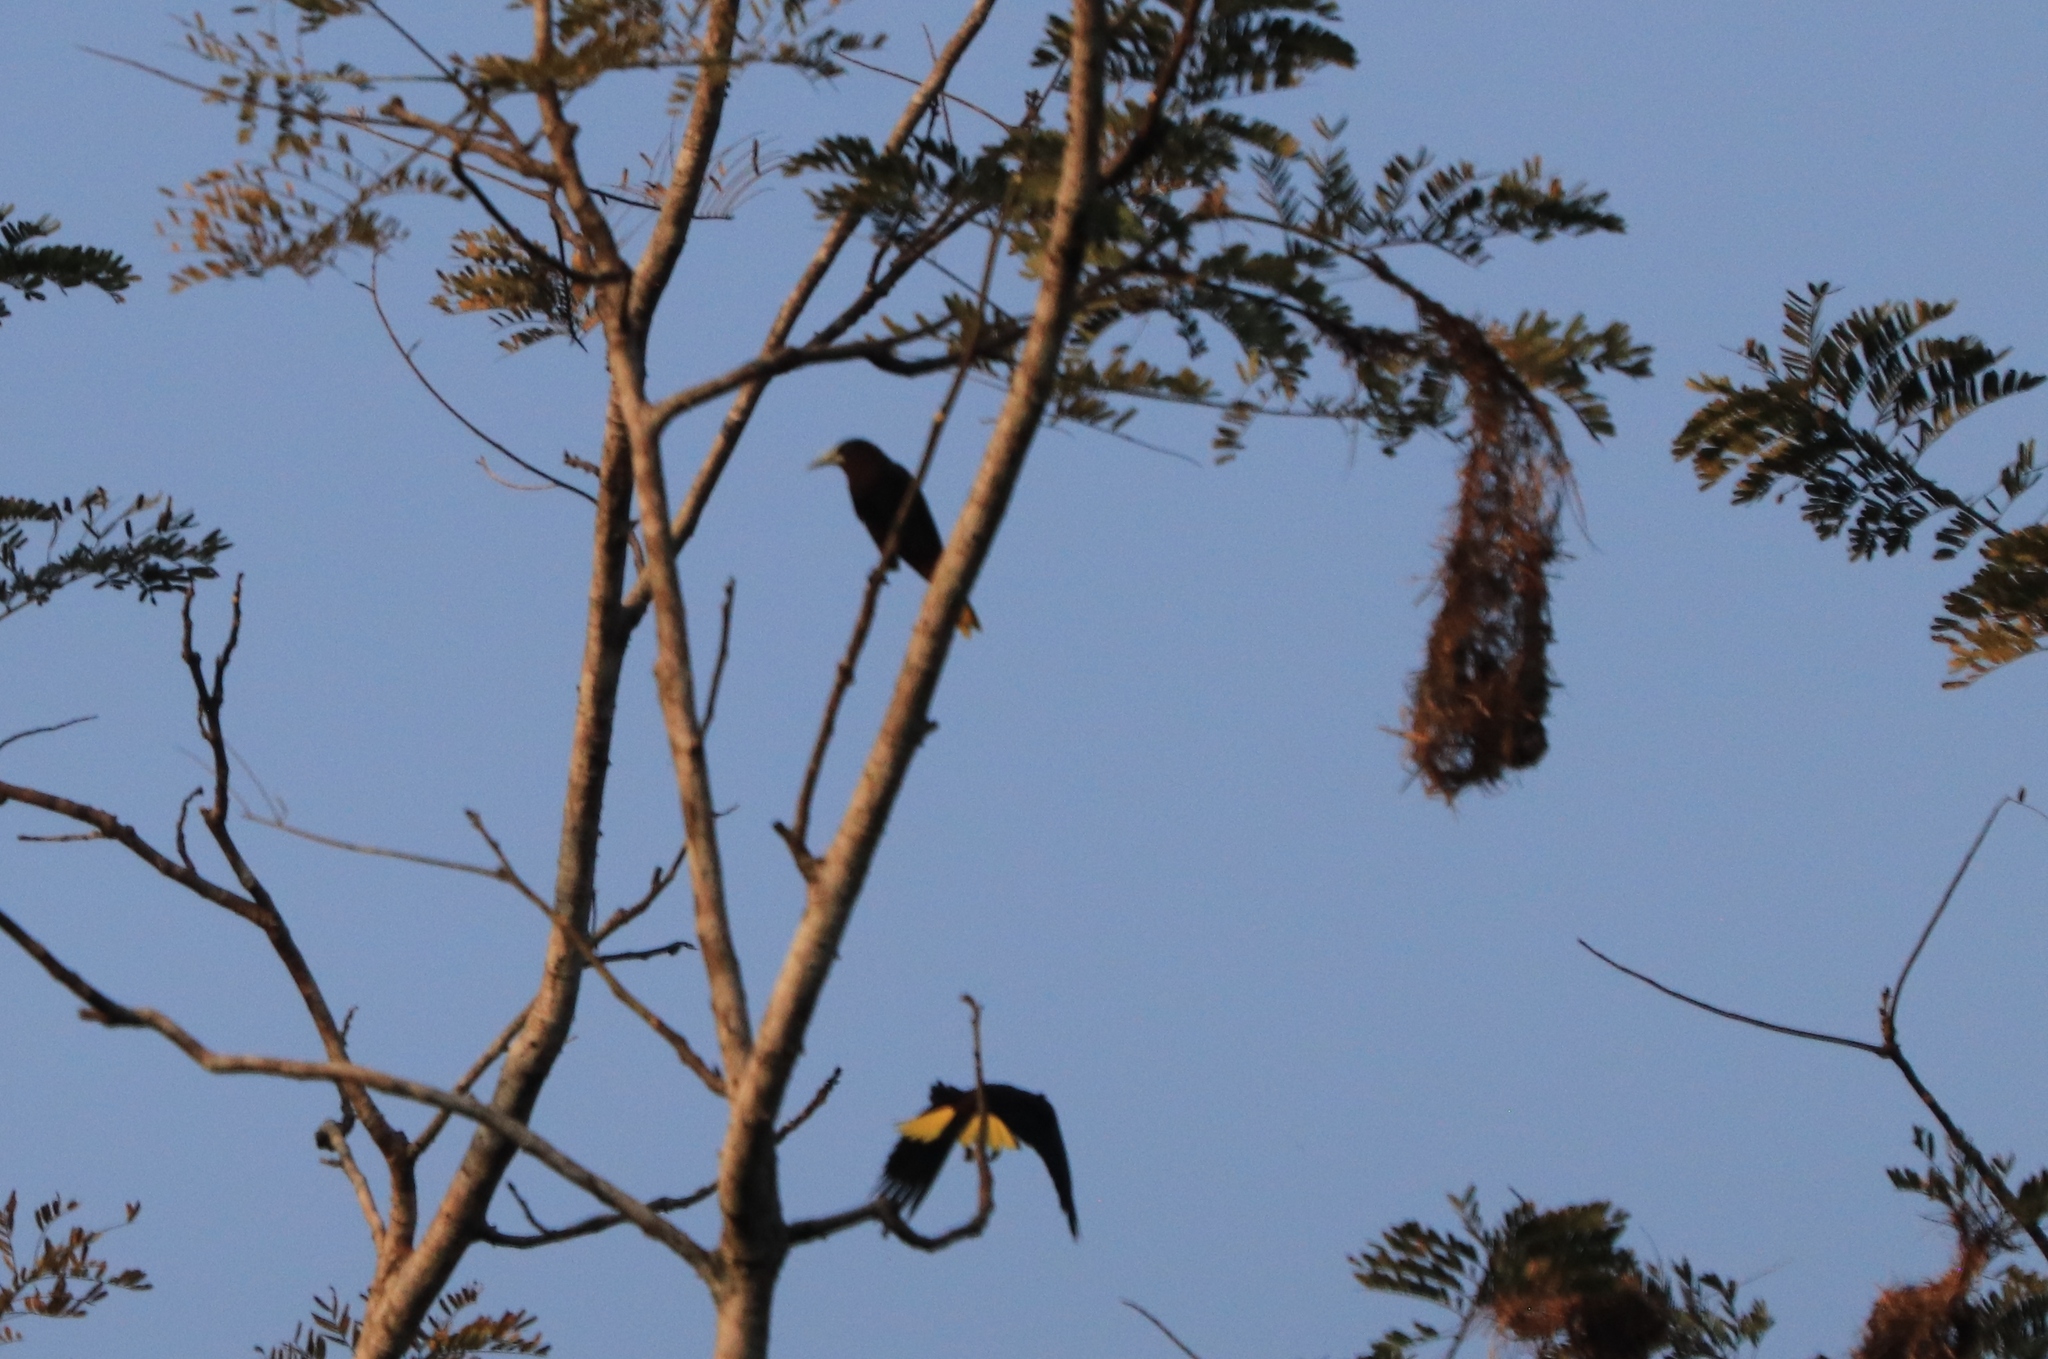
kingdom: Animalia
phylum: Chordata
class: Aves
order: Passeriformes
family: Icteridae
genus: Psarocolius
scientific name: Psarocolius montezuma
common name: Montezuma oropendola
